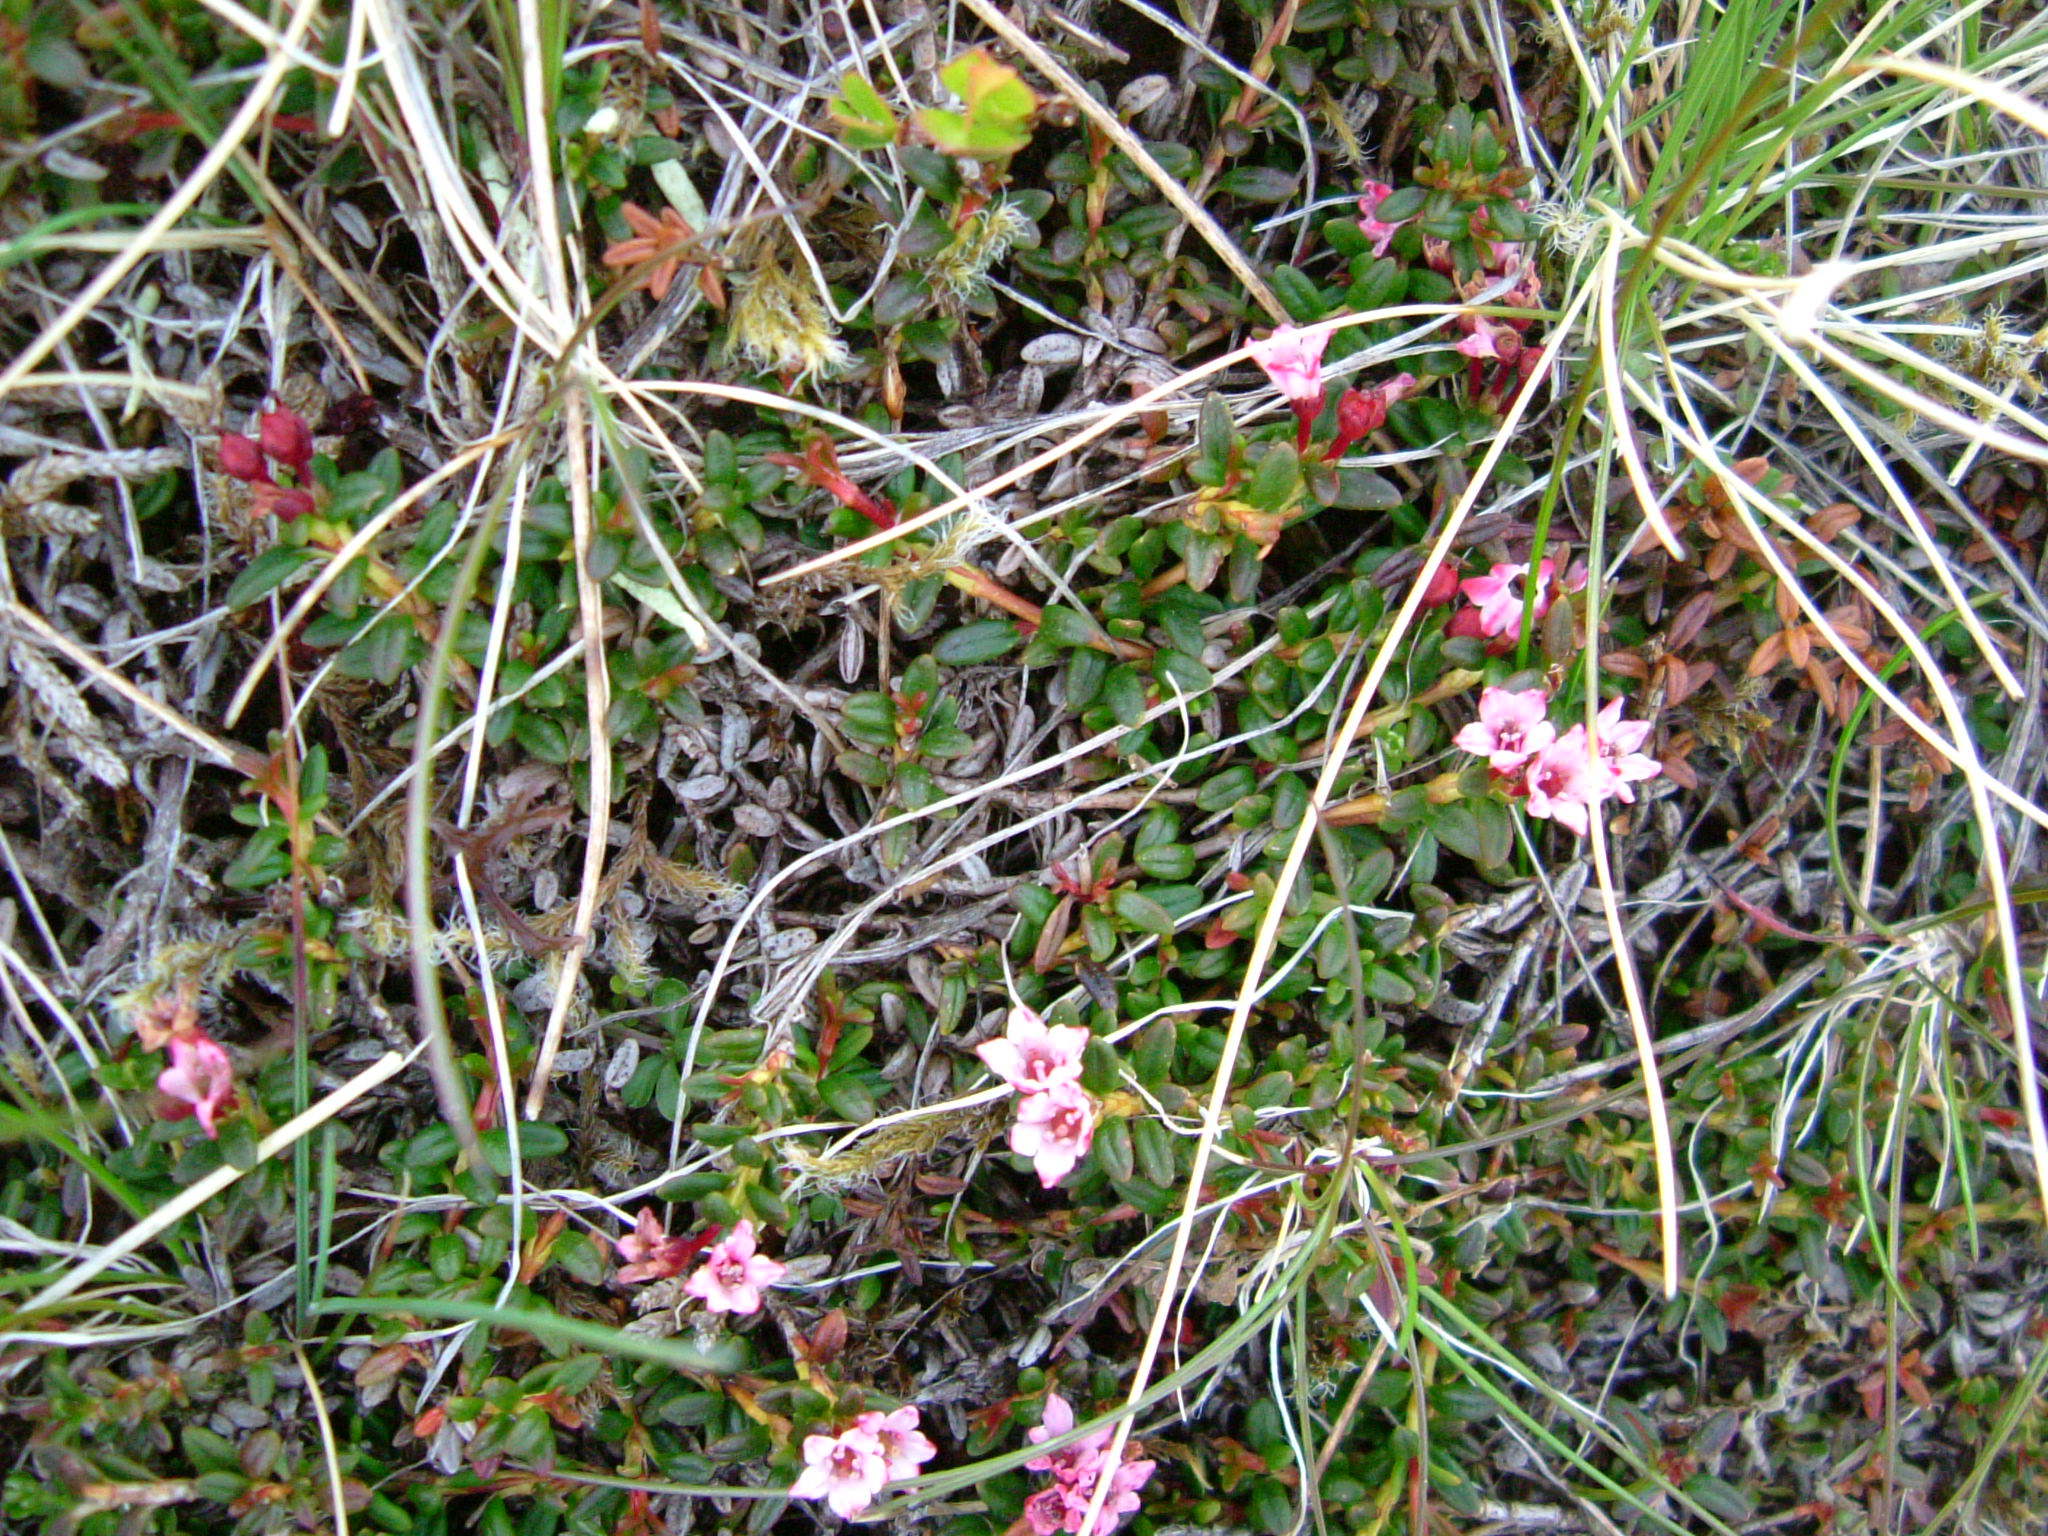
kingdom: Plantae
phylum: Tracheophyta
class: Magnoliopsida
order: Ericales
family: Ericaceae
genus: Kalmia
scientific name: Kalmia procumbens
